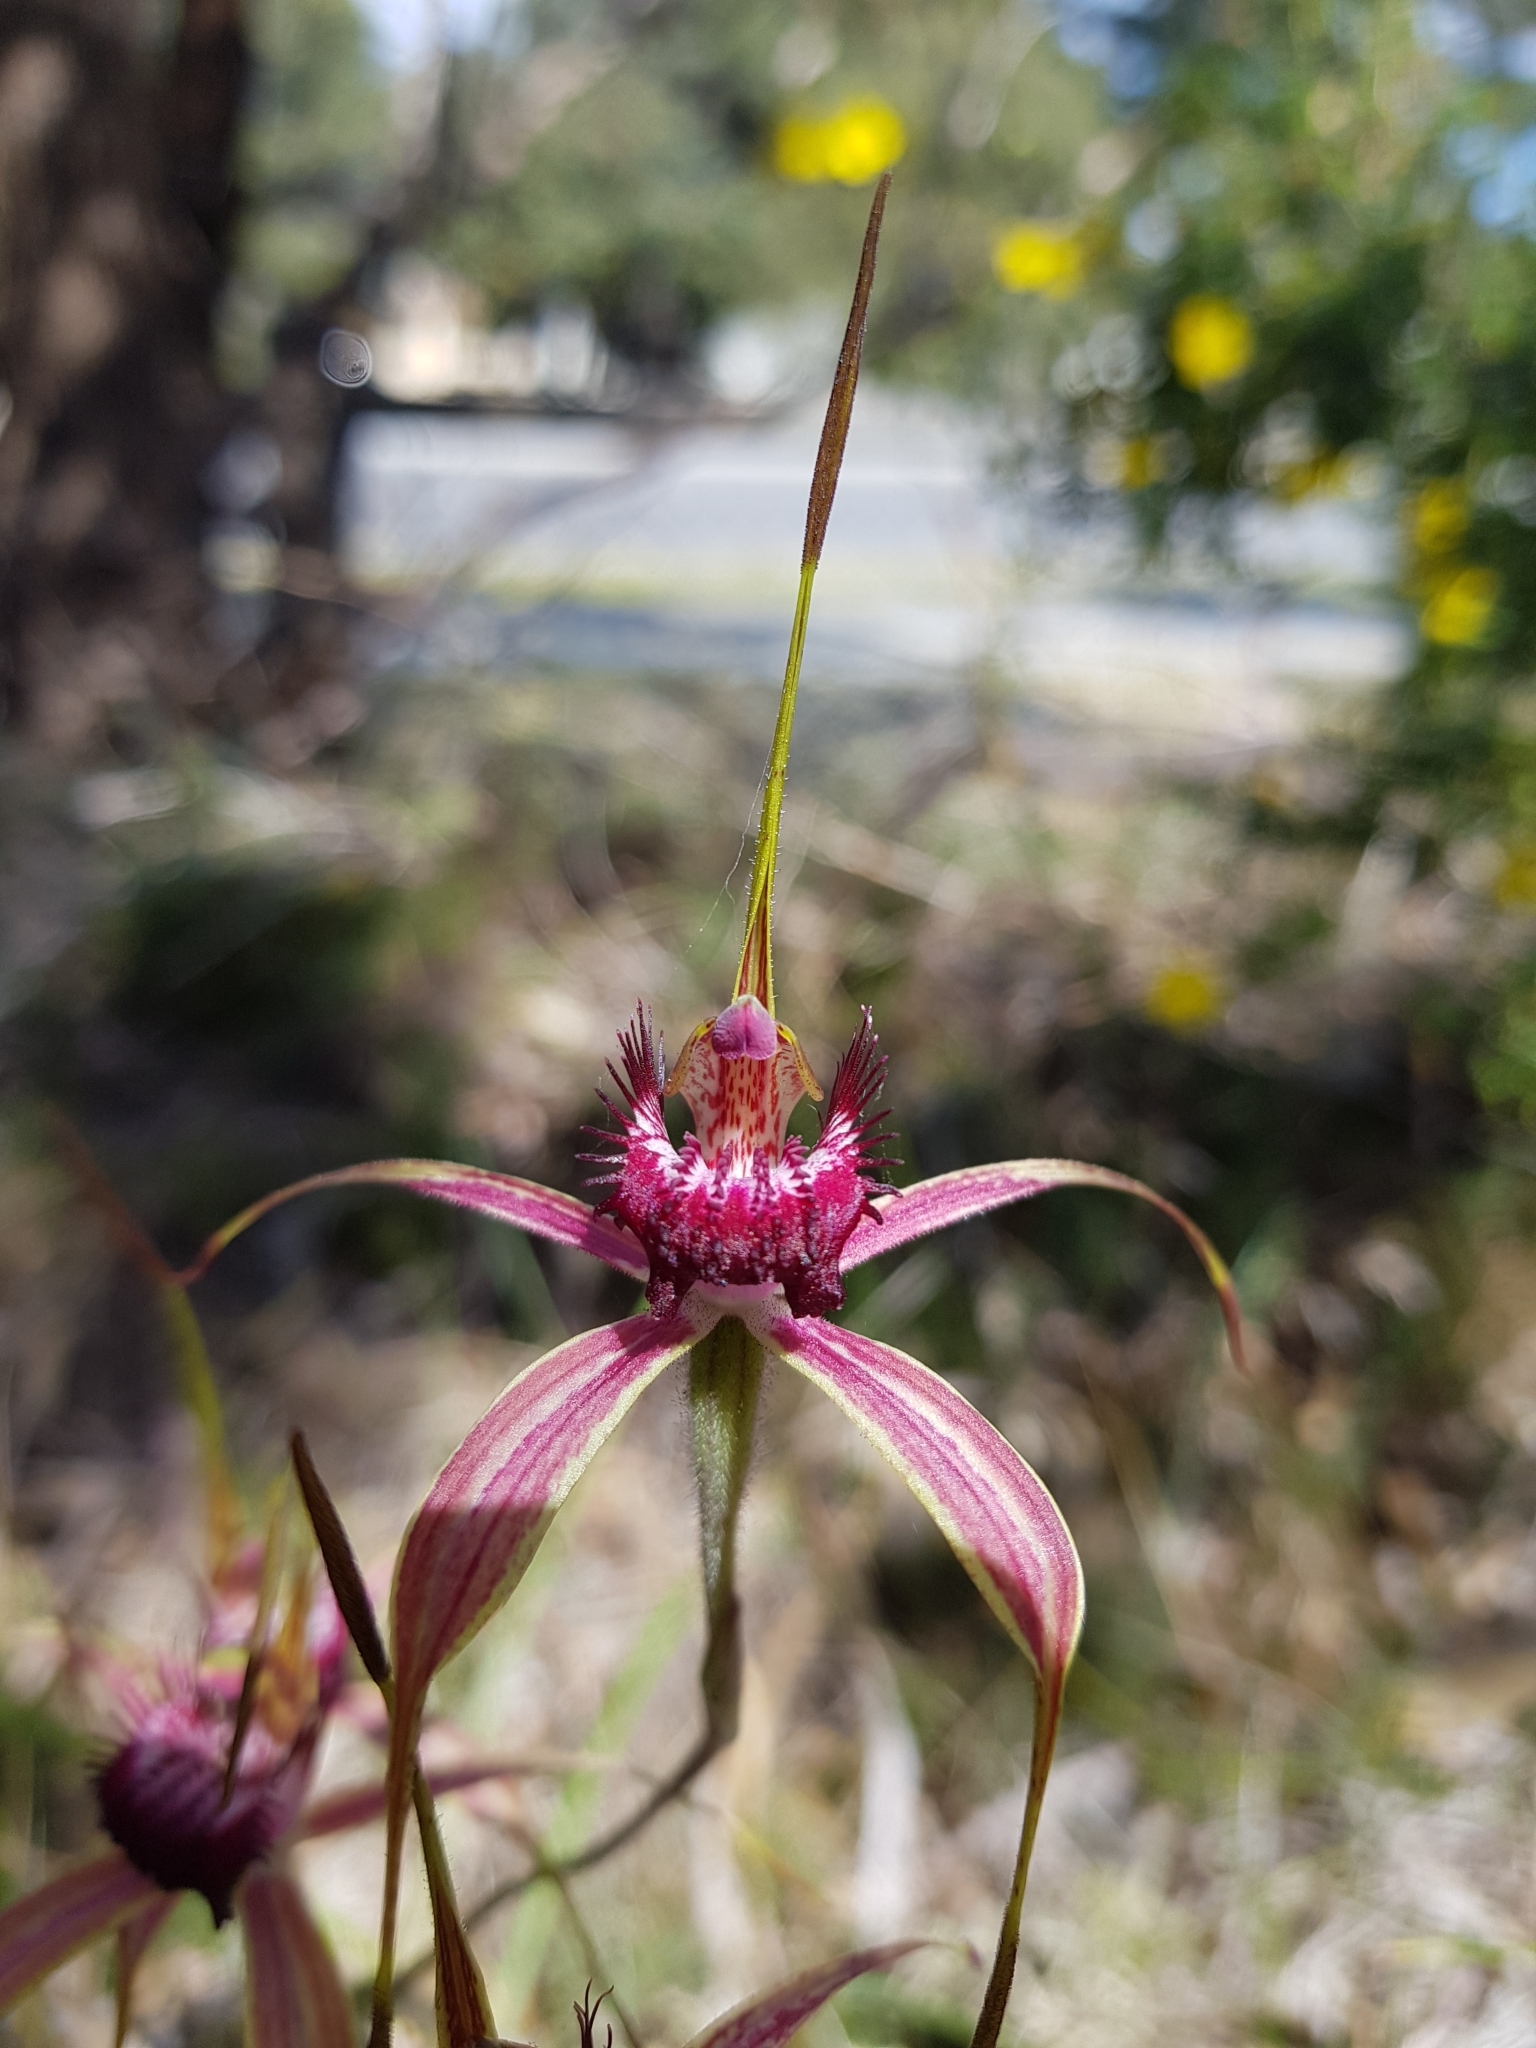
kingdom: Plantae
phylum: Tracheophyta
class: Liliopsida
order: Asparagales
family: Orchidaceae
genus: Caladenia
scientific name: Caladenia arenicola
